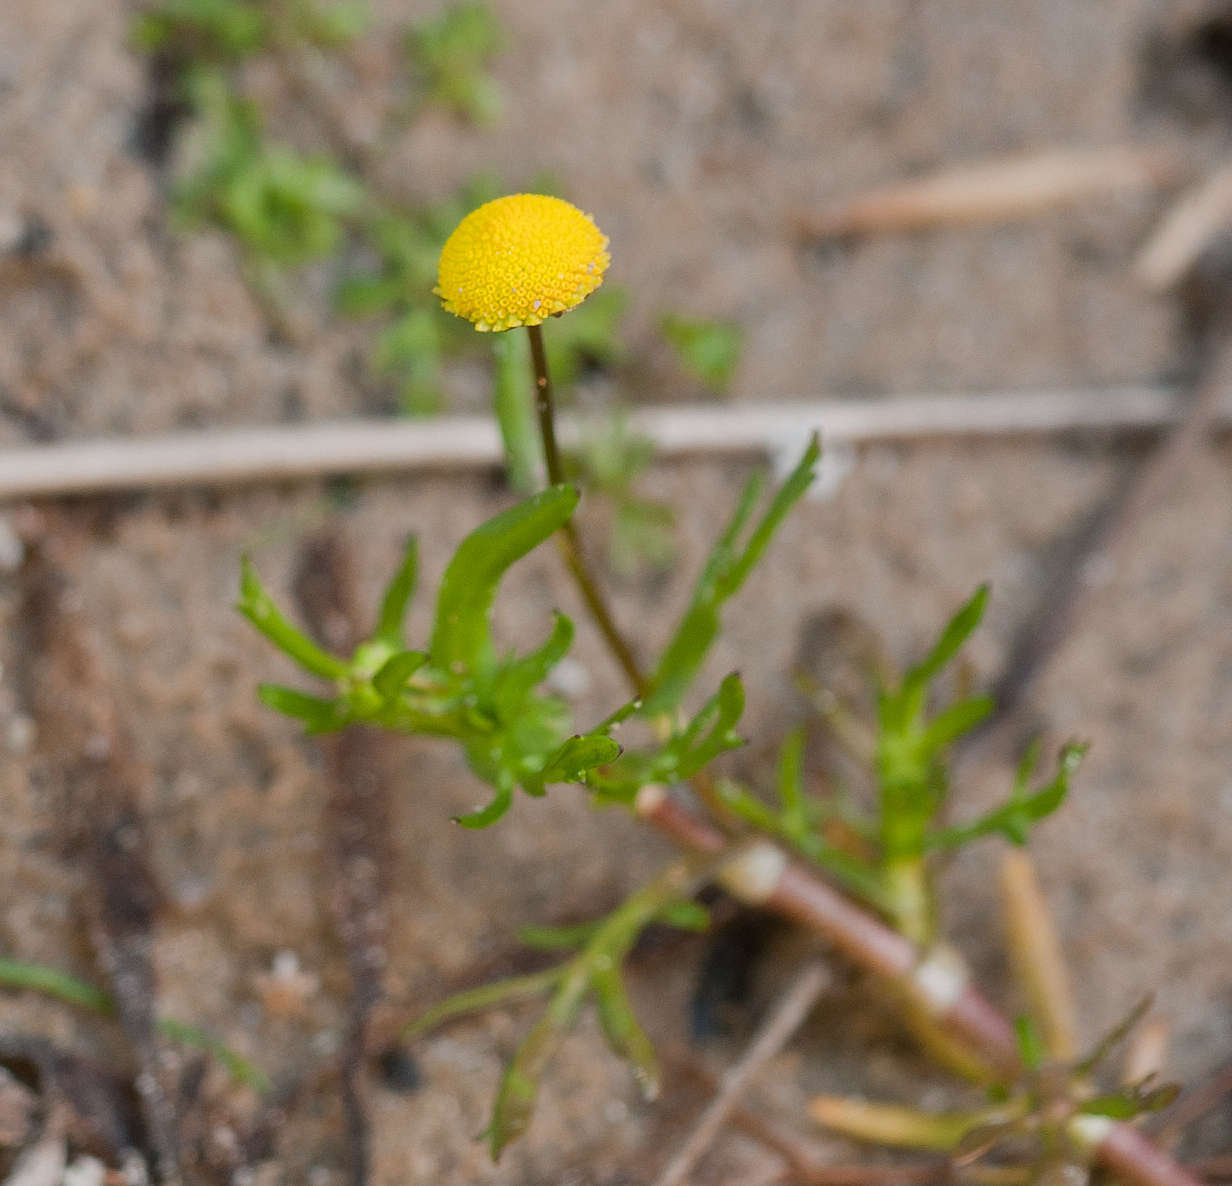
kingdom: Plantae
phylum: Tracheophyta
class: Magnoliopsida
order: Asterales
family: Asteraceae
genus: Cotula
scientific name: Cotula coronopifolia
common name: Buttonweed
